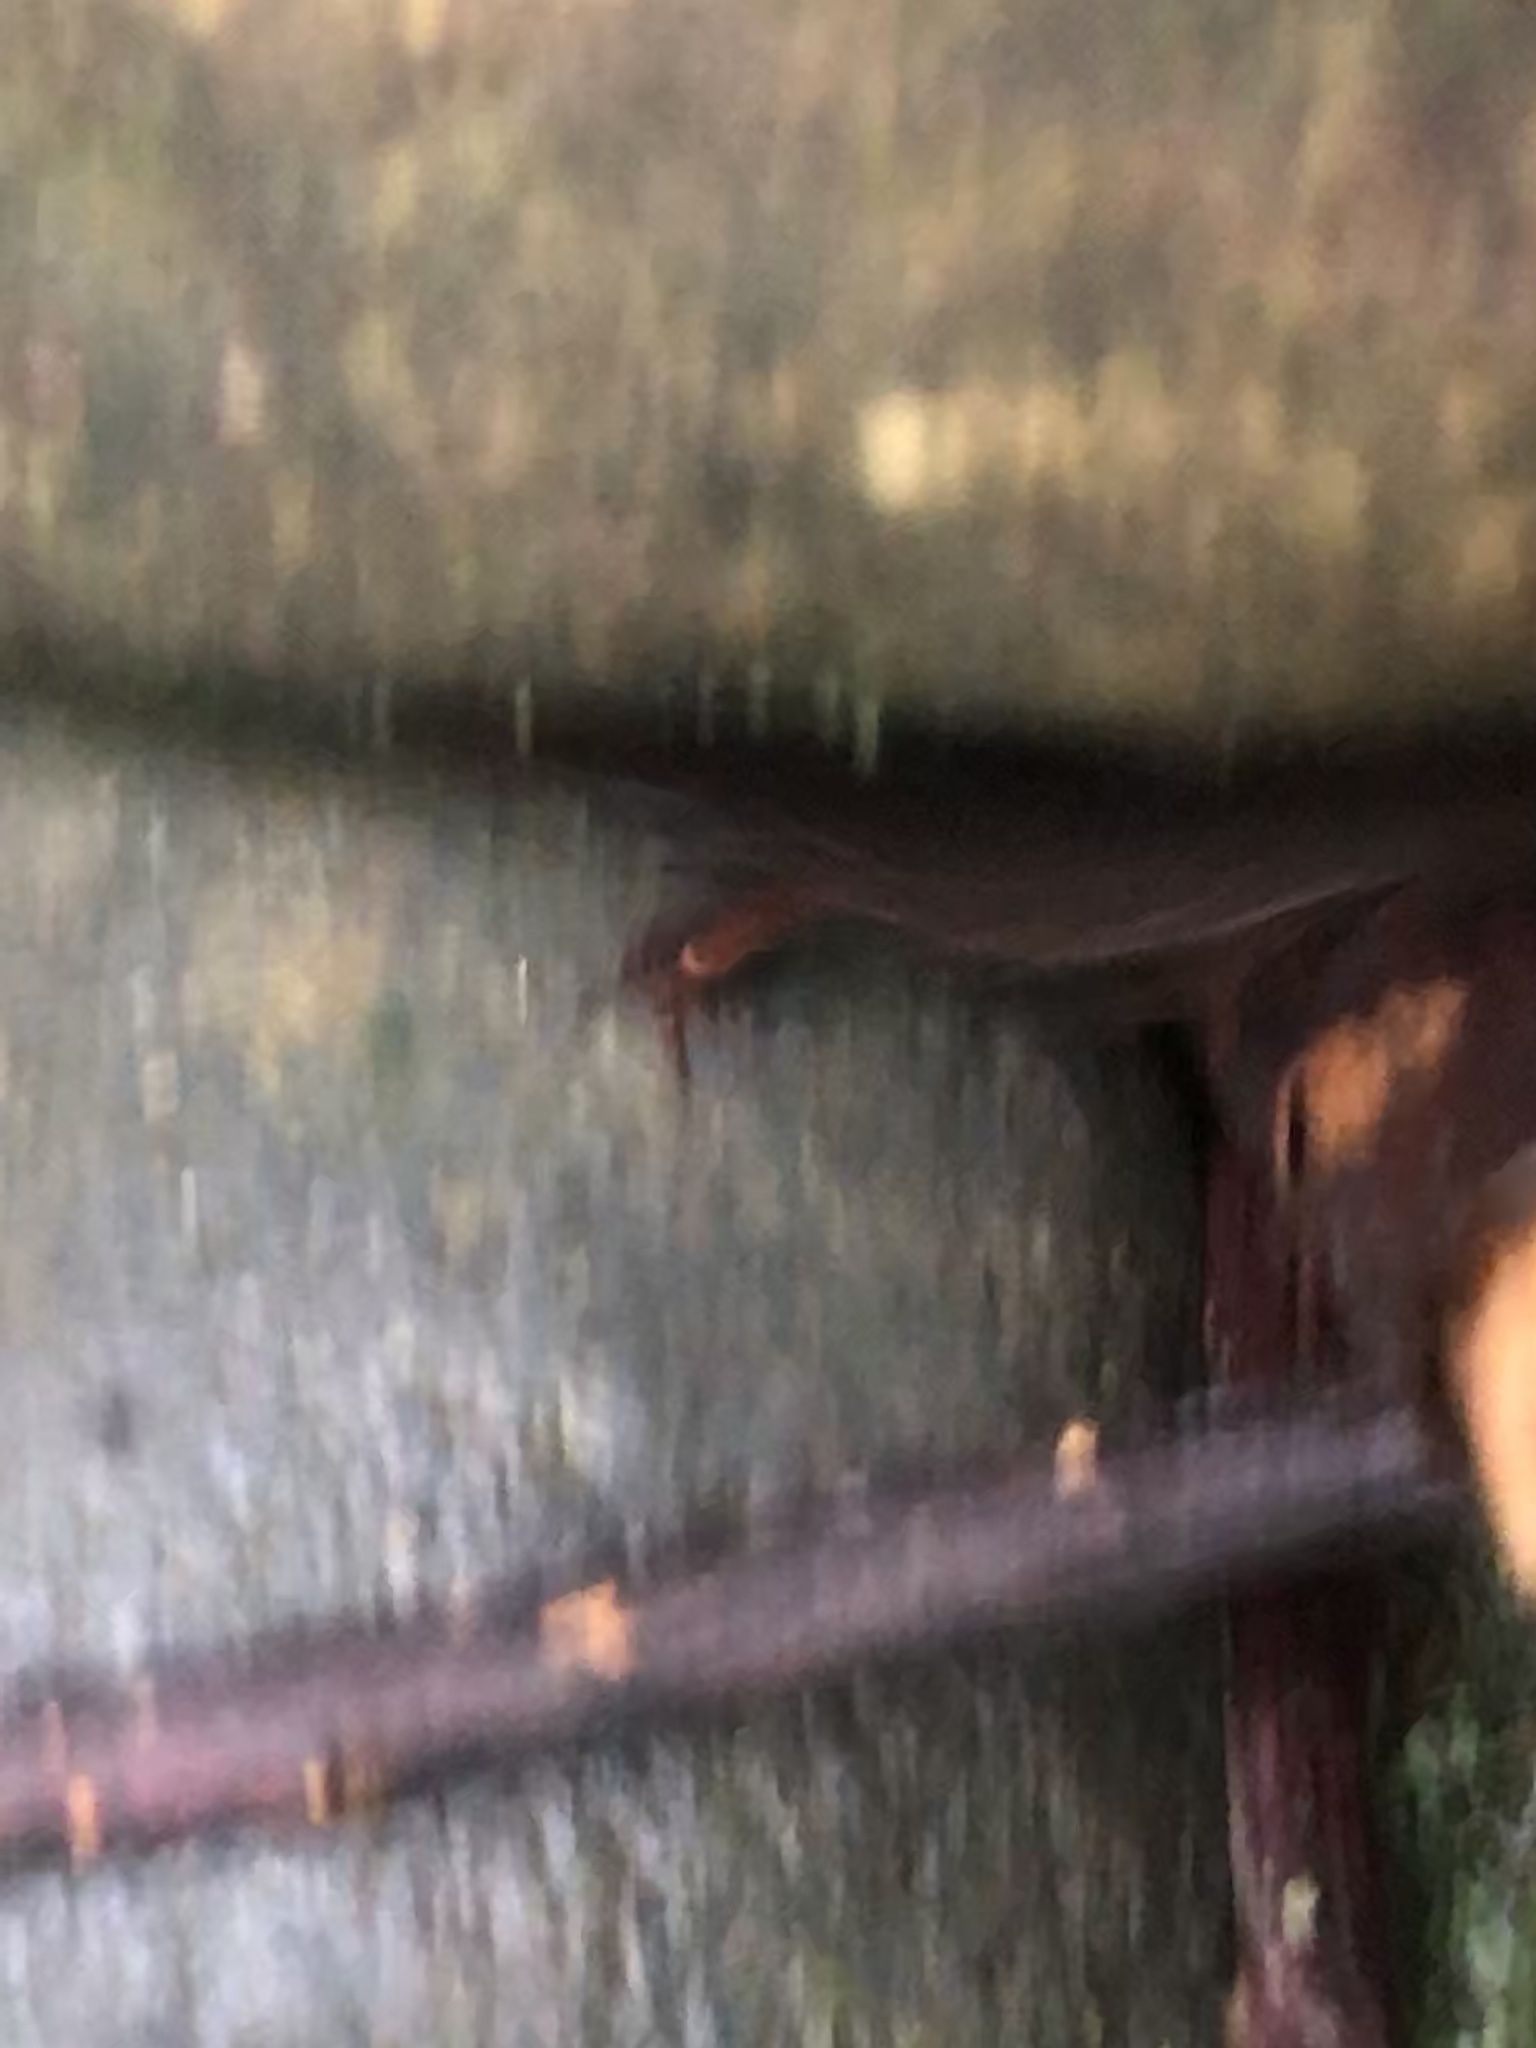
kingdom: Animalia
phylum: Chordata
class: Squamata
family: Sphaerodactylidae
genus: Pseudogonatodes
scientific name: Pseudogonatodes guianensis
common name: Amazon pigmy gecko
